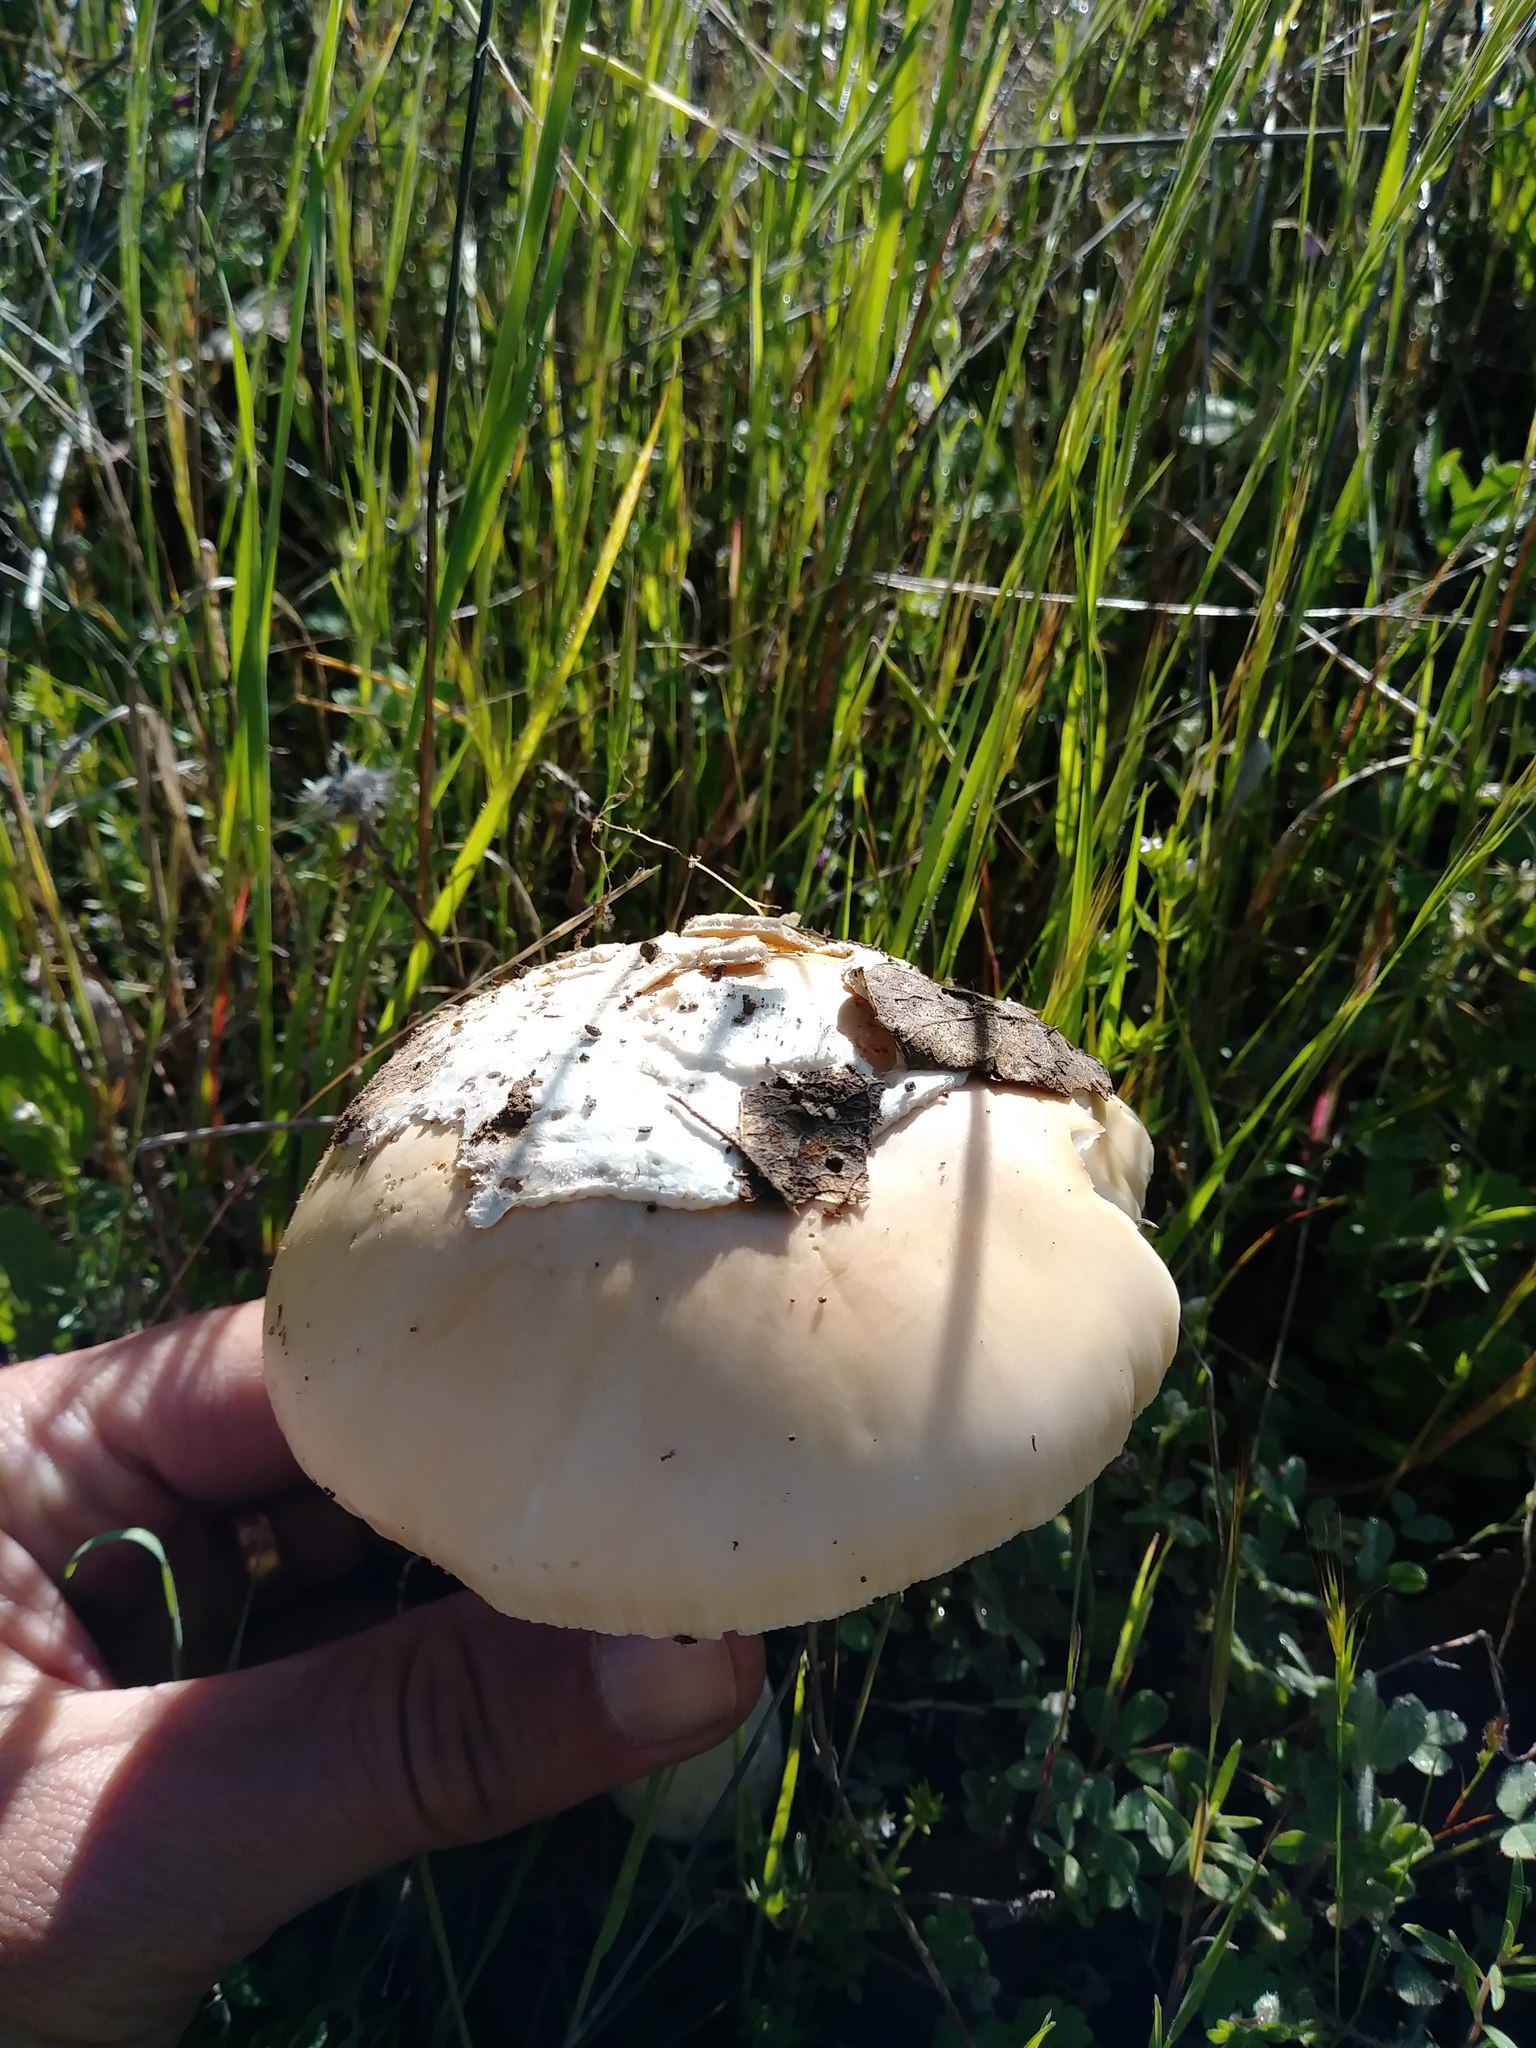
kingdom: Fungi
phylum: Basidiomycota
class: Agaricomycetes
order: Agaricales
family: Amanitaceae
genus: Amanita
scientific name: Amanita velosa
